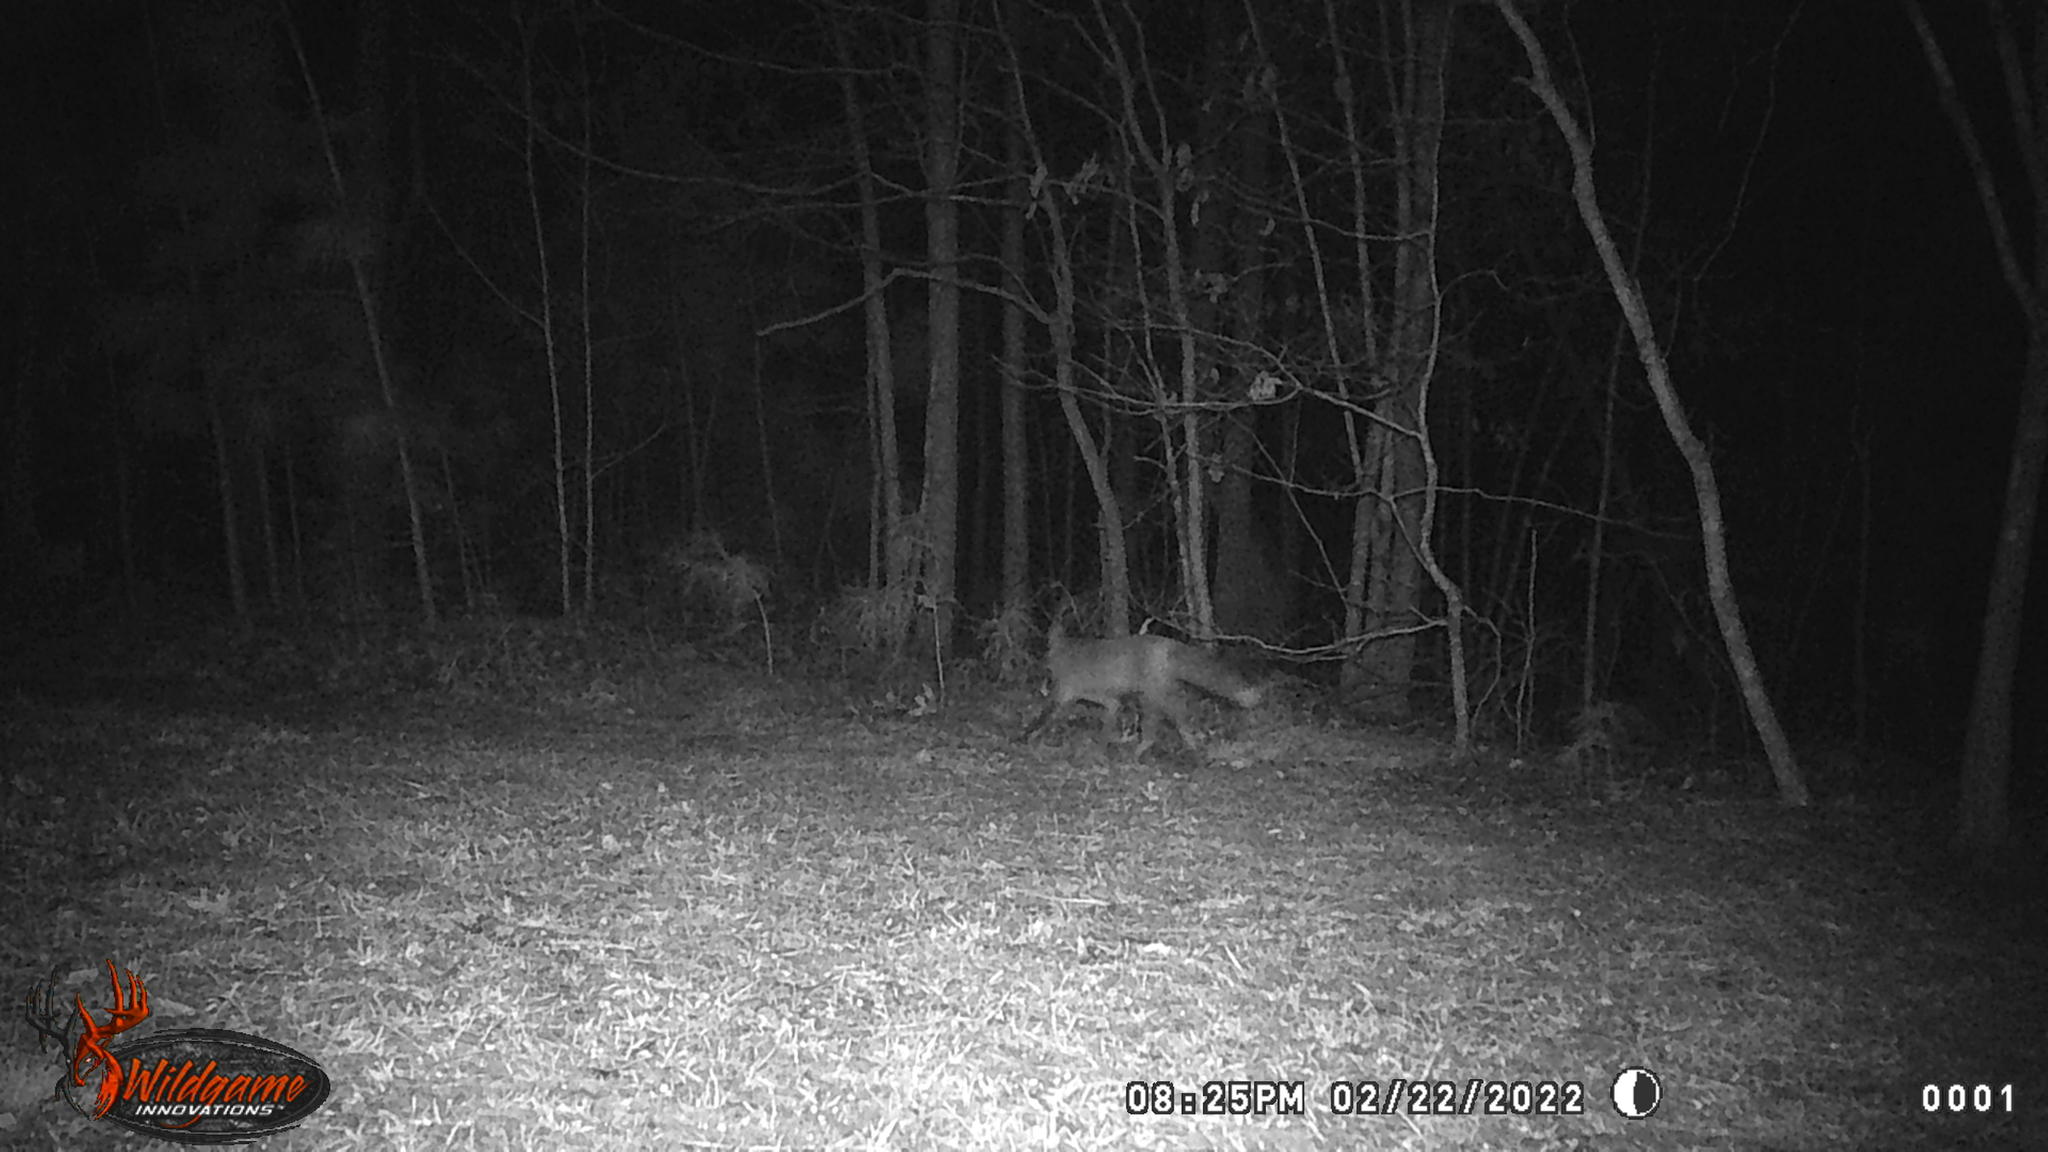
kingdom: Animalia
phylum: Chordata
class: Mammalia
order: Carnivora
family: Canidae
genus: Vulpes
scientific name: Vulpes vulpes
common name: Red fox
